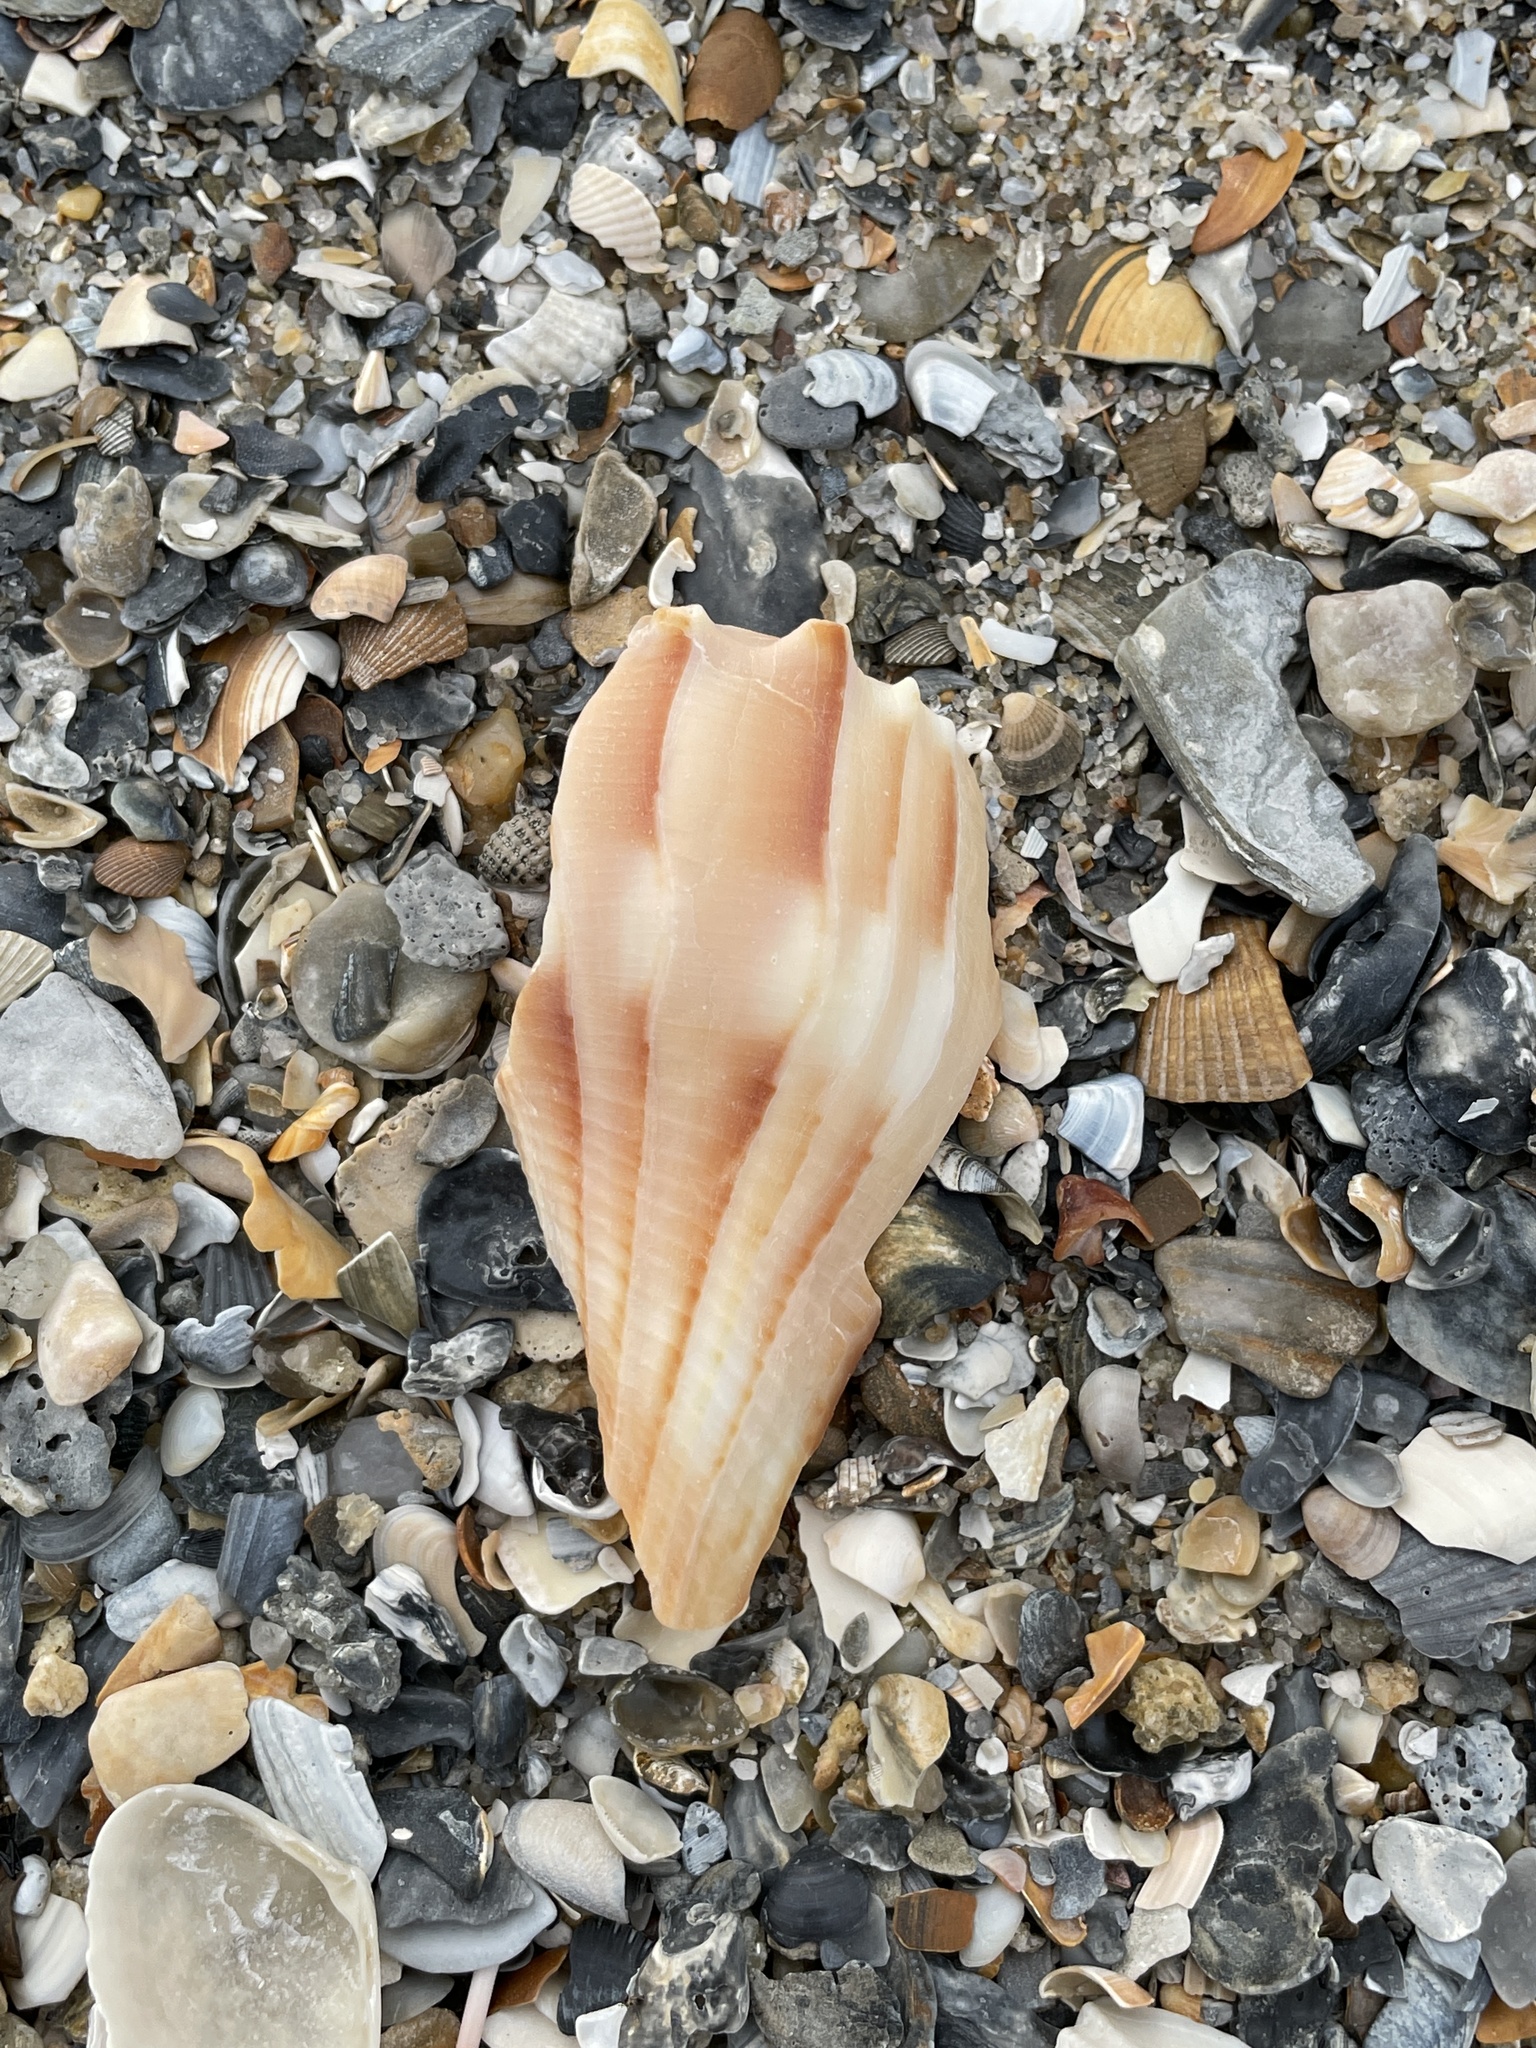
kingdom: Animalia
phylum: Mollusca
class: Gastropoda
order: Neogastropoda
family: Busyconidae
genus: Sinistrofulgur
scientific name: Sinistrofulgur sinistrum
